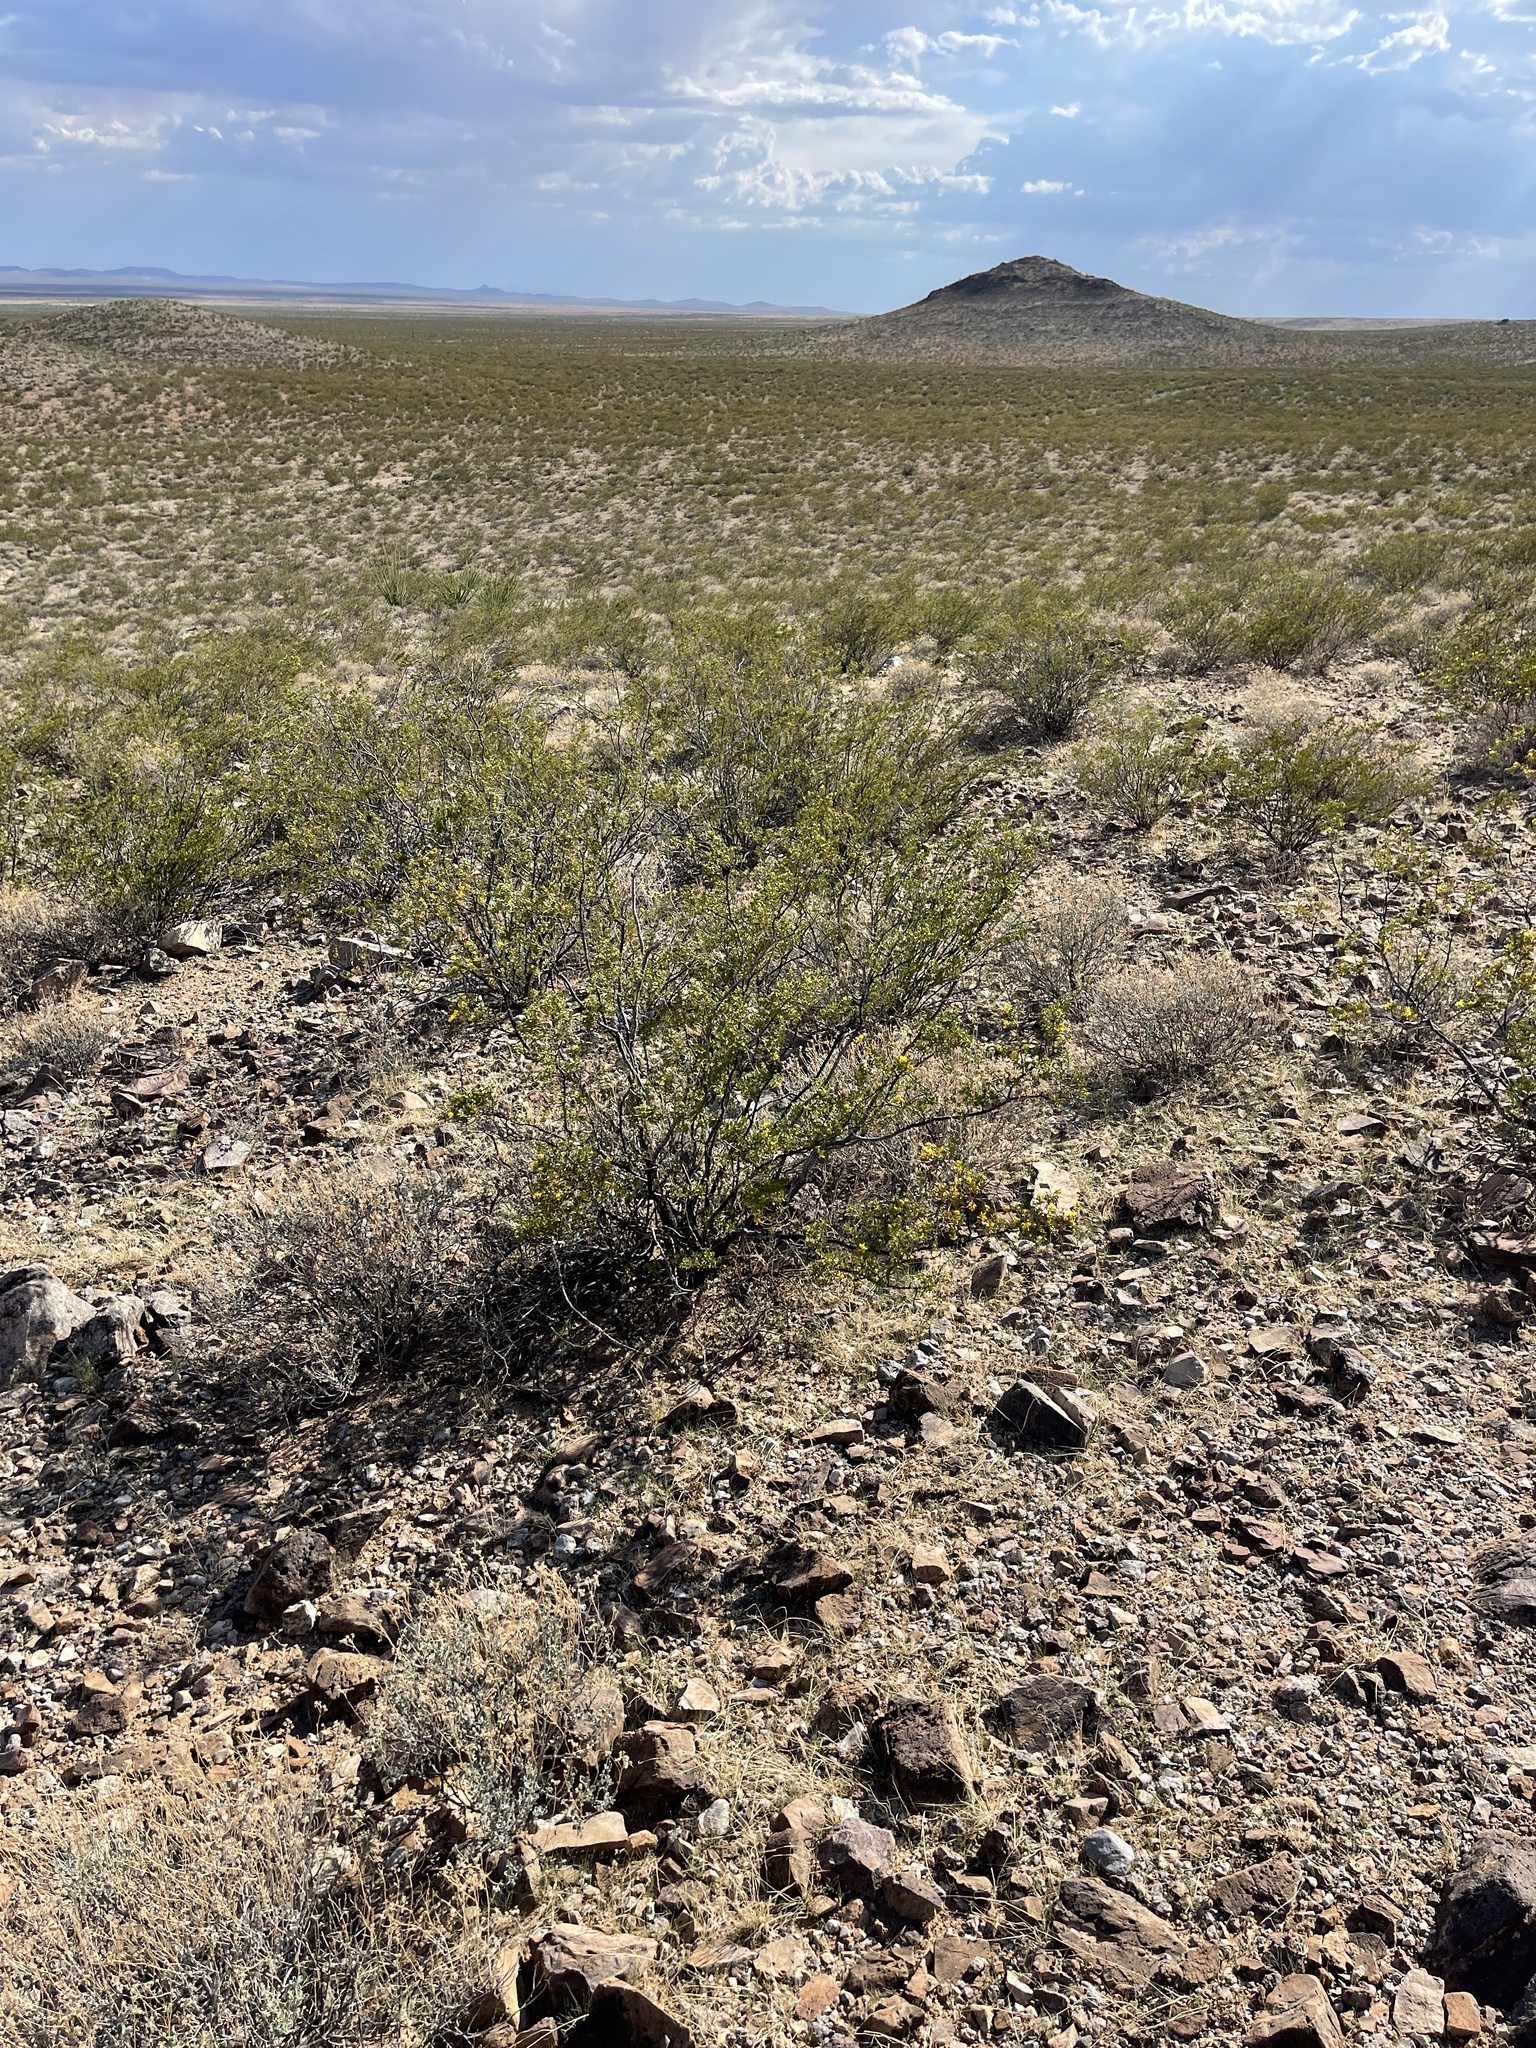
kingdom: Plantae
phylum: Tracheophyta
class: Magnoliopsida
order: Zygophyllales
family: Zygophyllaceae
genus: Larrea
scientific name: Larrea tridentata
